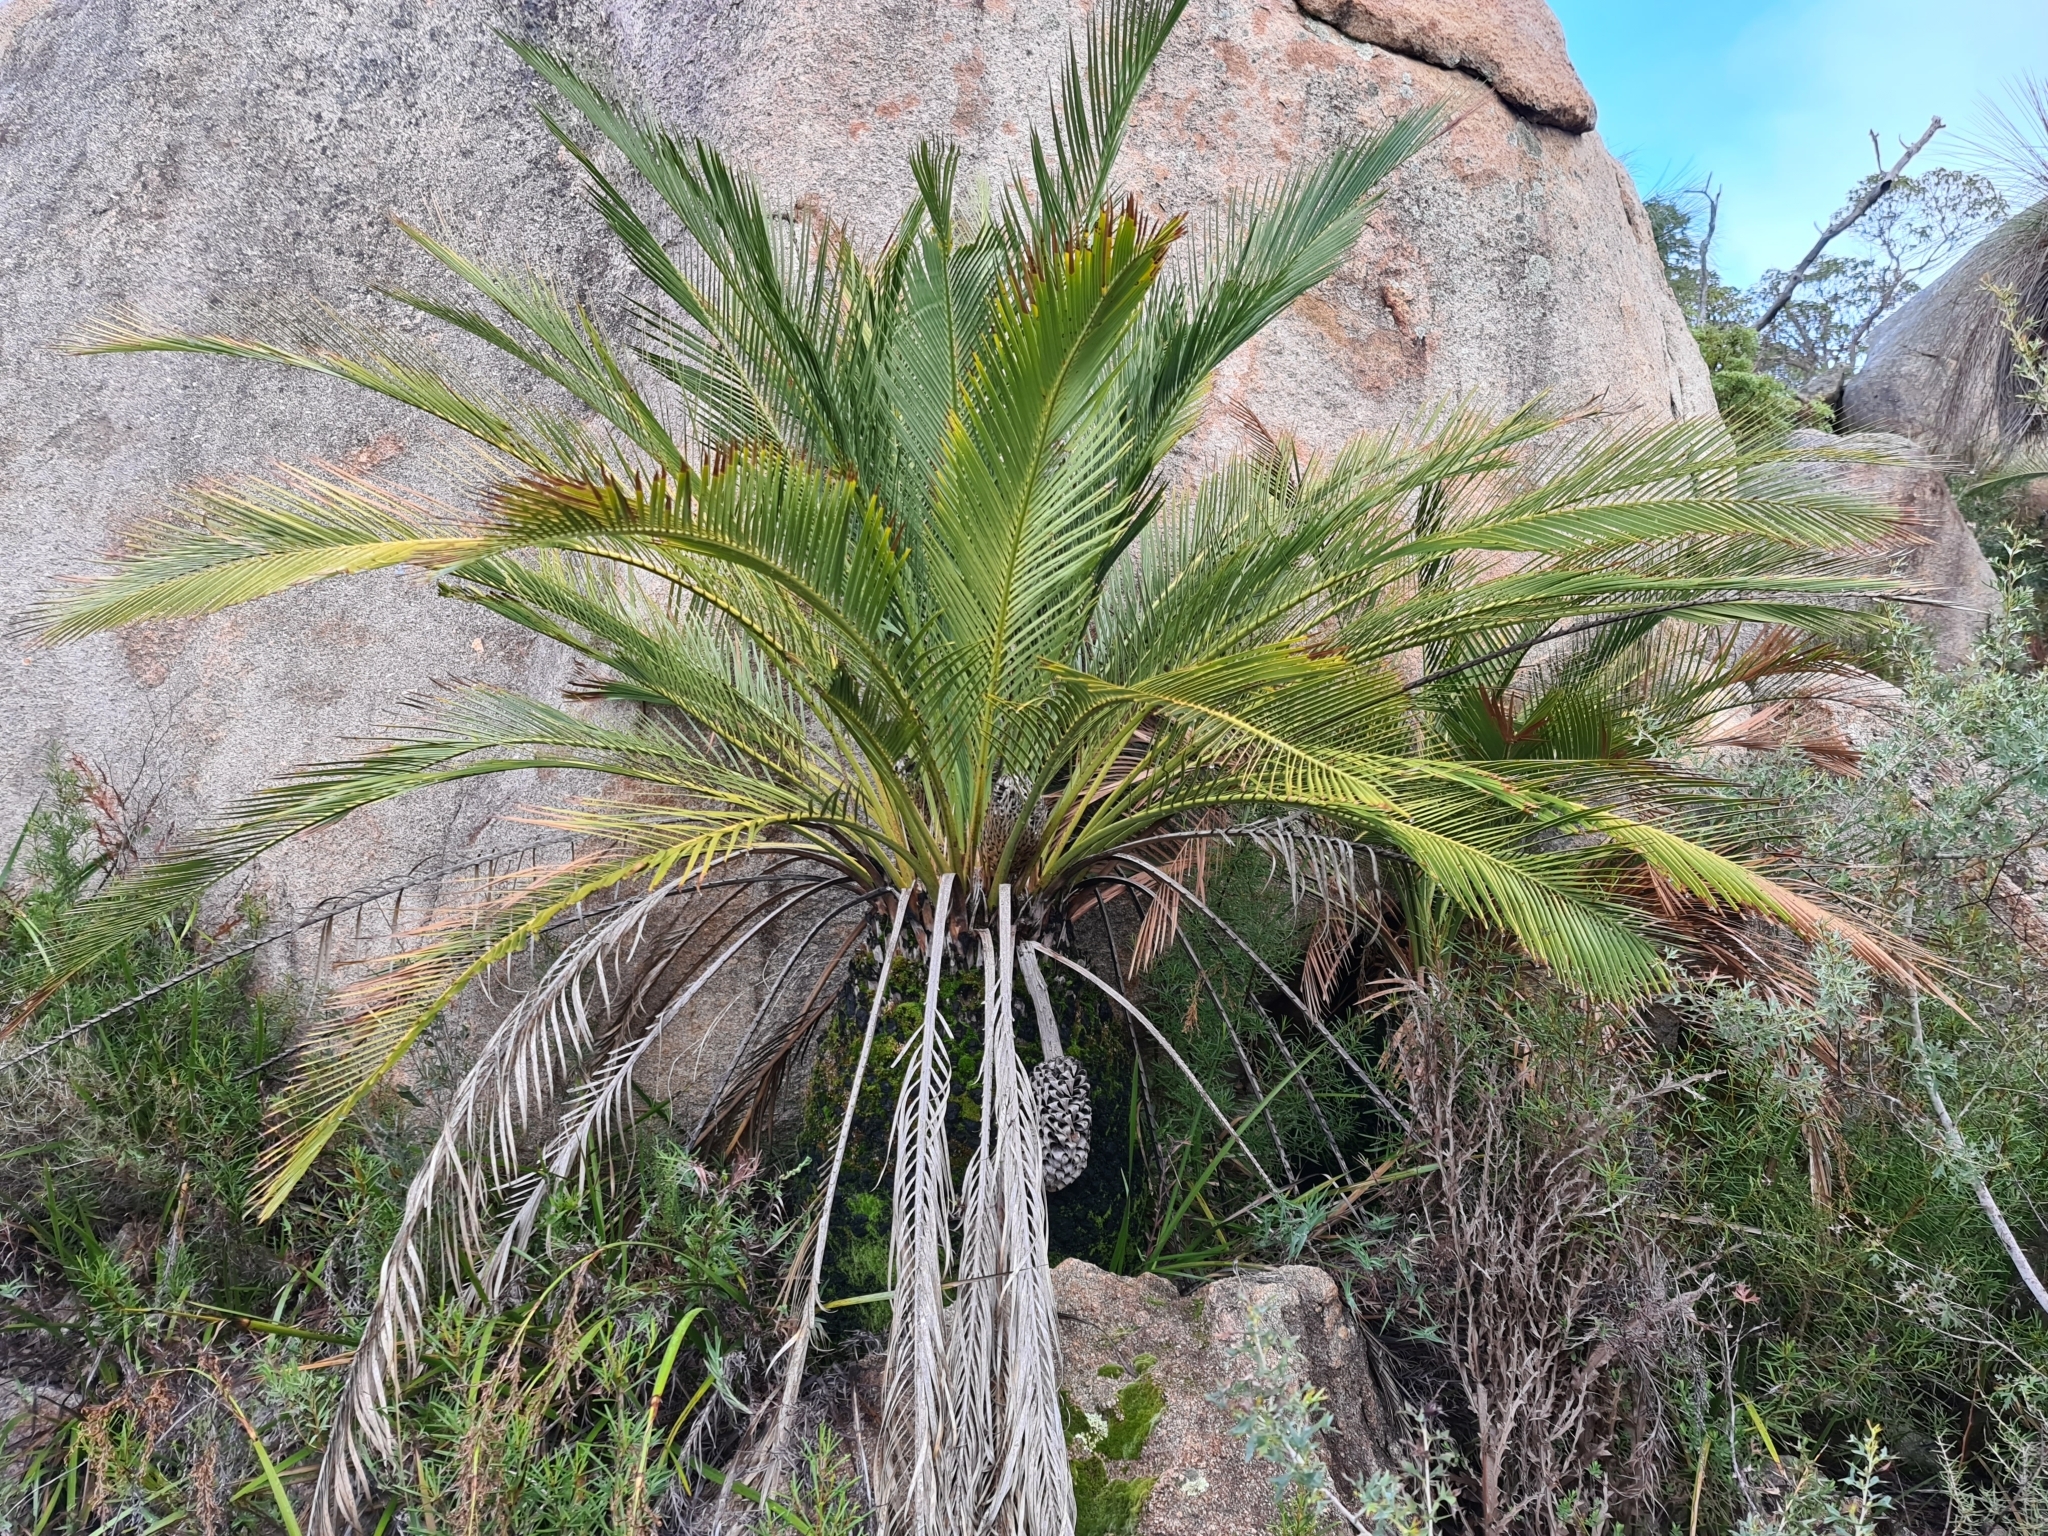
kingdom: Plantae
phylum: Tracheophyta
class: Cycadopsida
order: Cycadales
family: Zamiaceae
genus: Macrozamia
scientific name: Macrozamia riedlei
